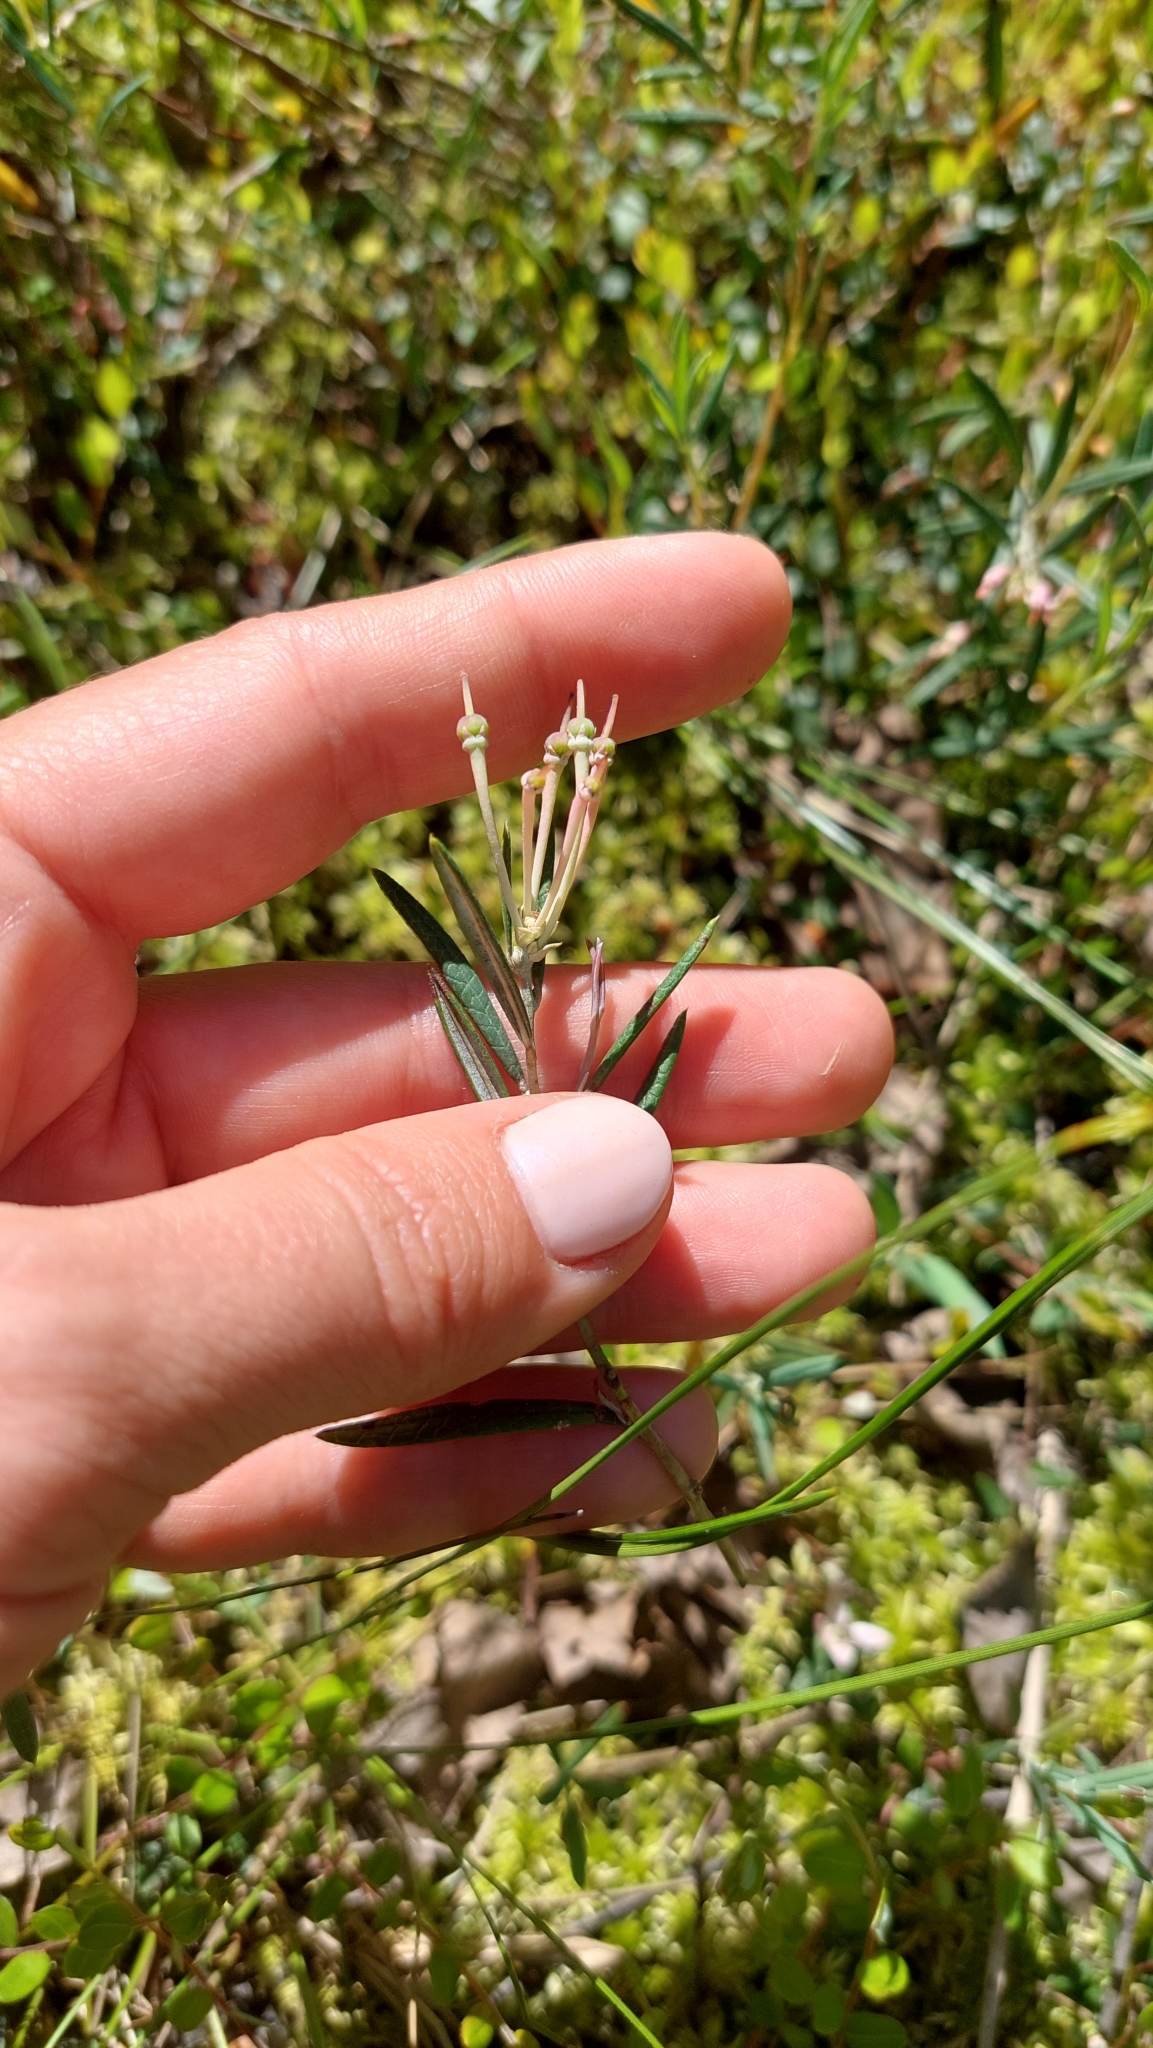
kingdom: Plantae
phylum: Tracheophyta
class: Magnoliopsida
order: Ericales
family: Ericaceae
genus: Andromeda
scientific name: Andromeda polifolia
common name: Bog-rosemary
